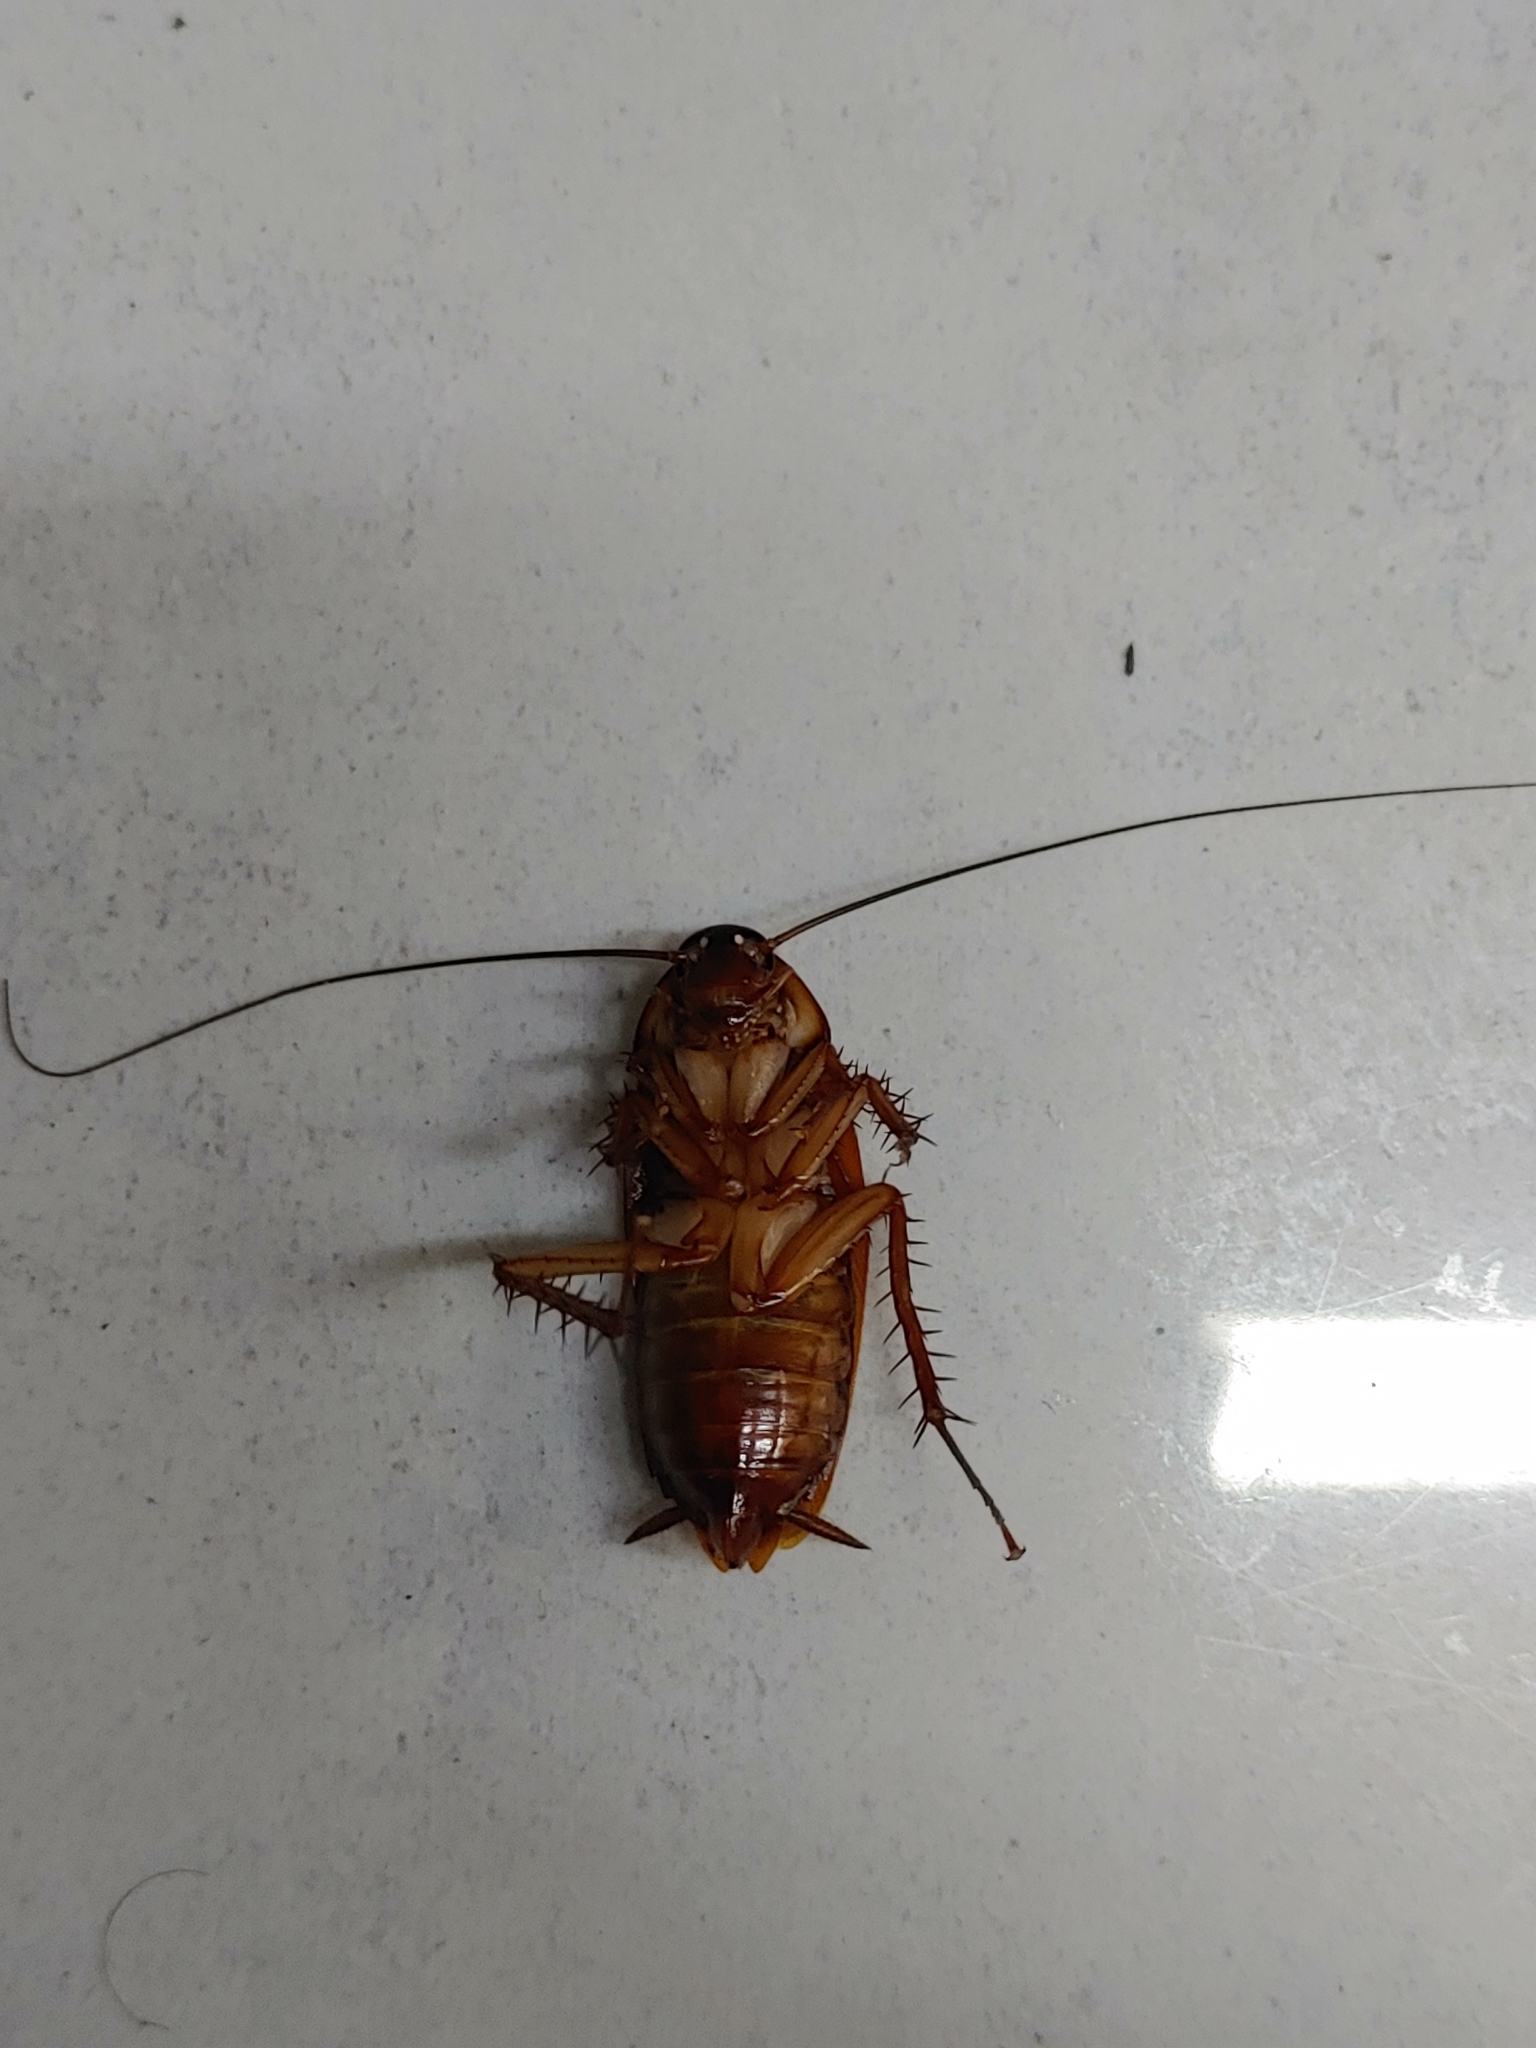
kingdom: Animalia
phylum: Arthropoda
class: Insecta
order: Blattodea
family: Blattidae
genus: Periplaneta
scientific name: Periplaneta americana
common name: American cockroach
